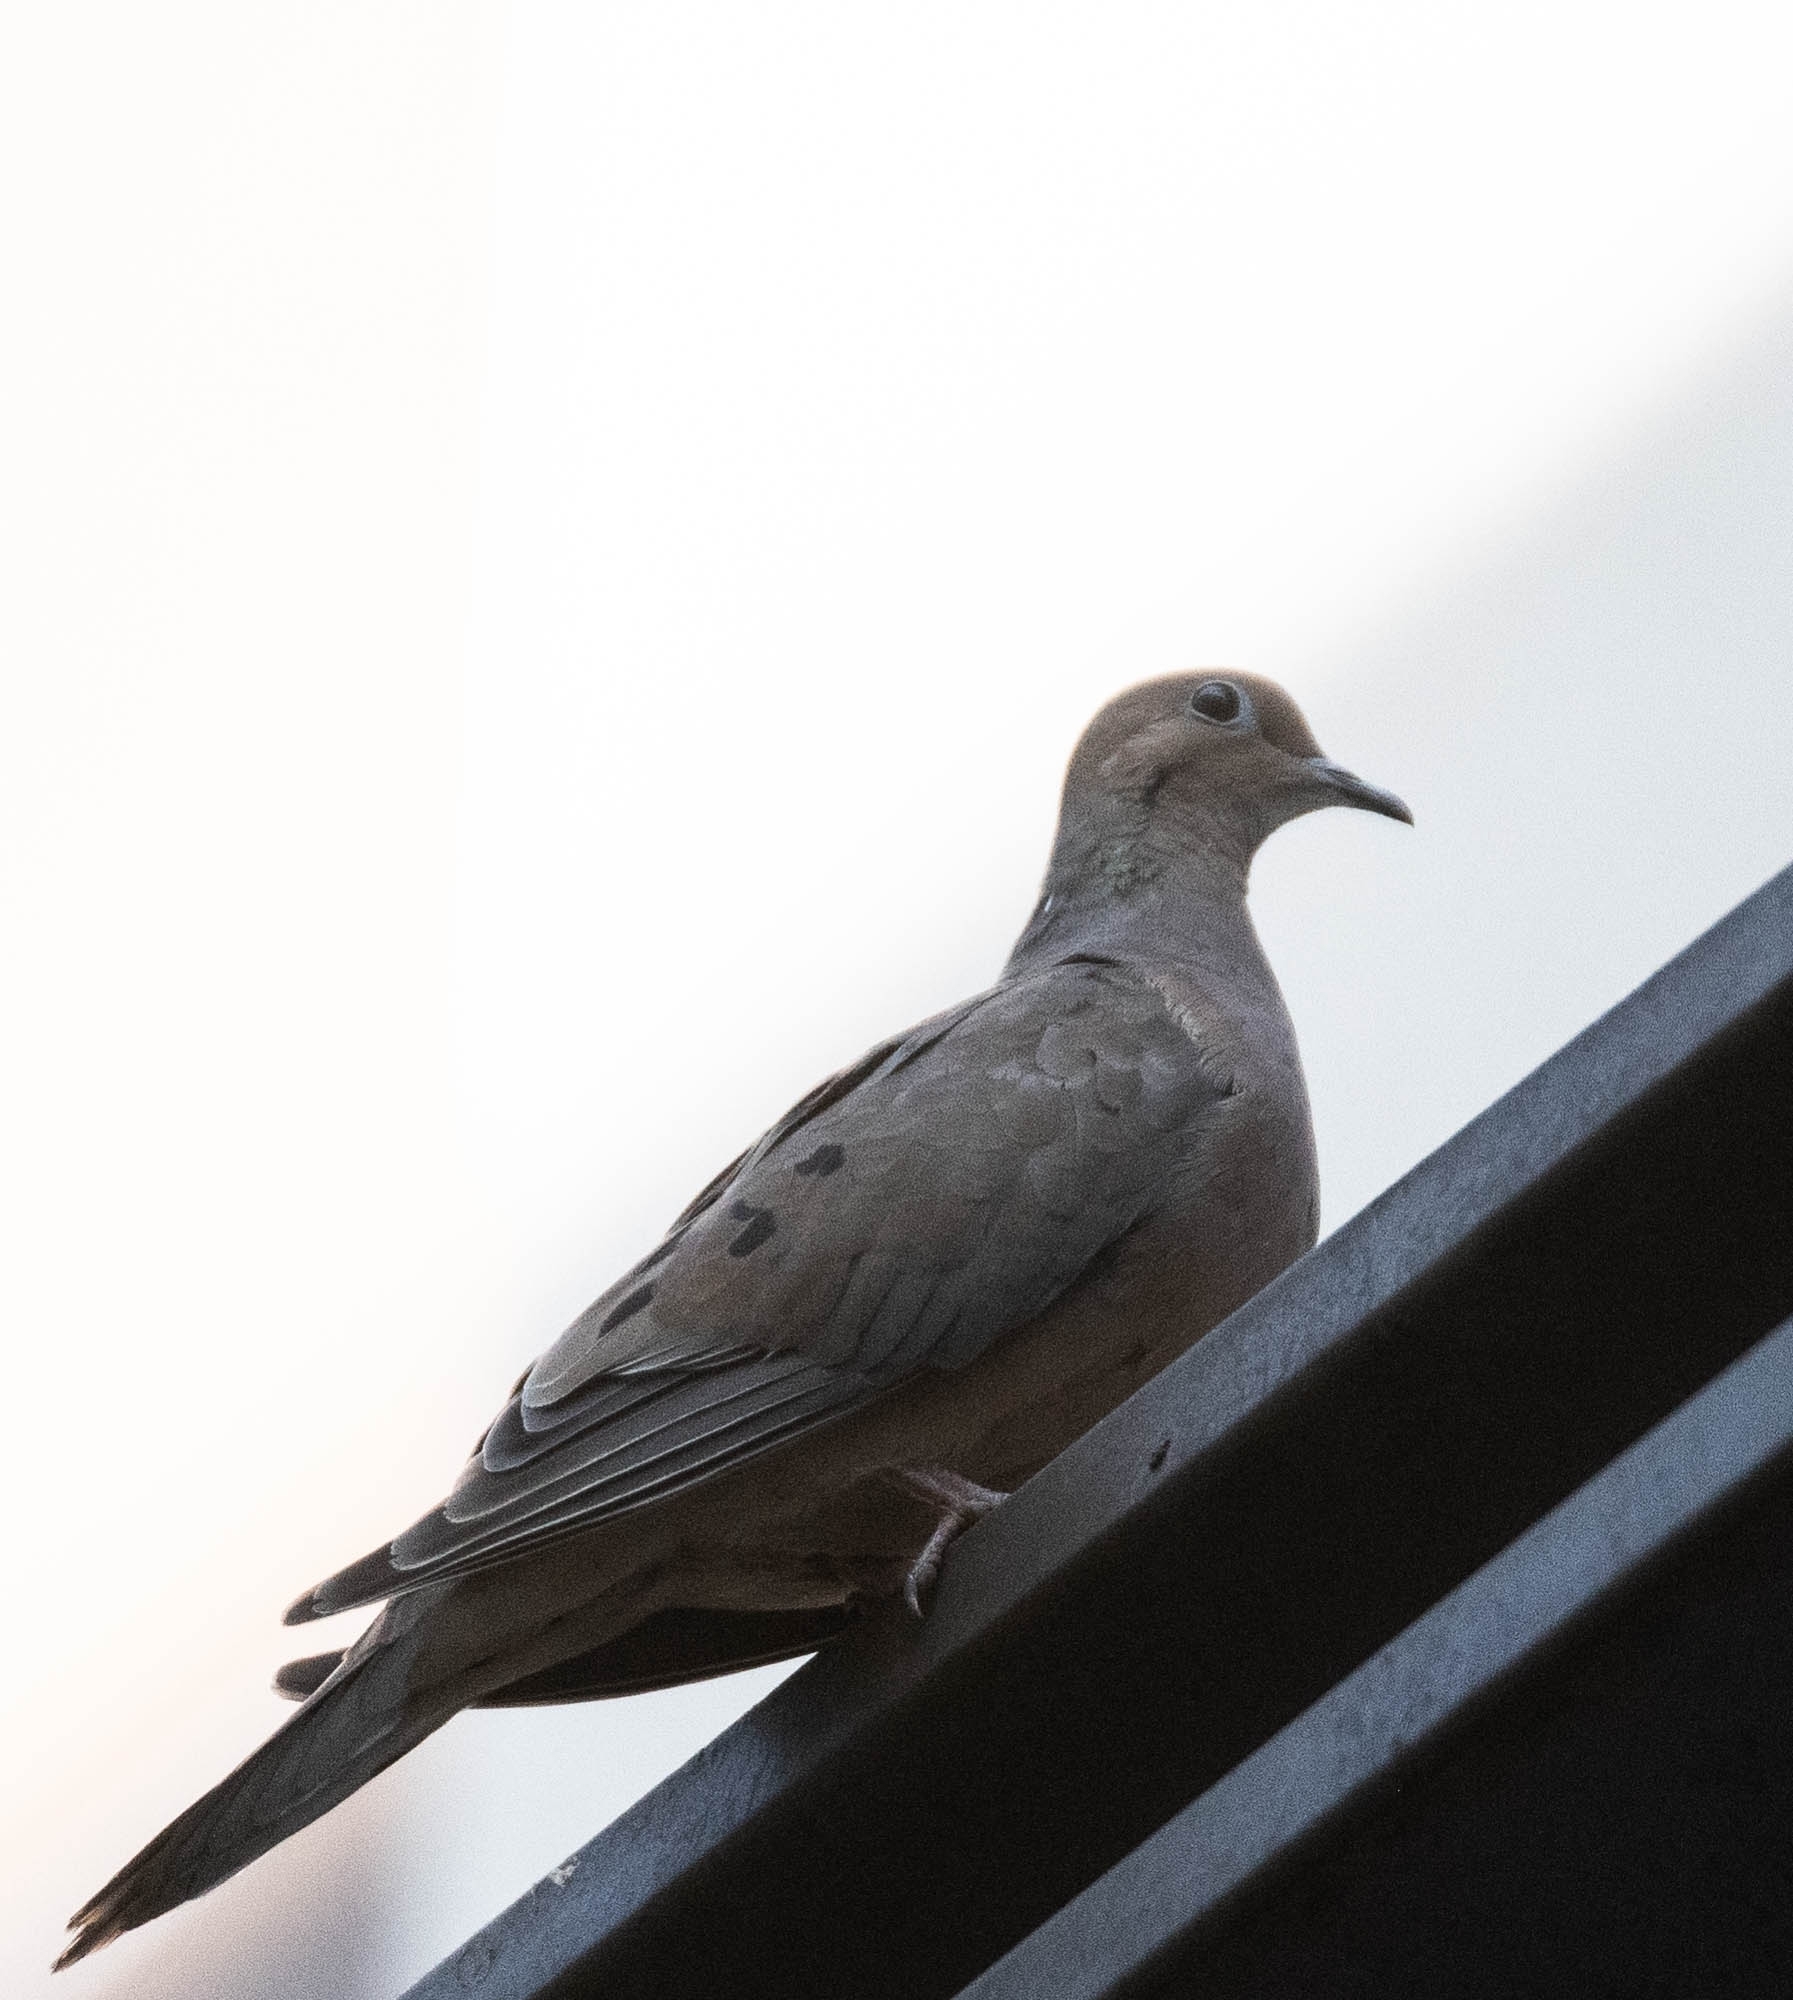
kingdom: Animalia
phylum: Chordata
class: Aves
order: Columbiformes
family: Columbidae
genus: Zenaida
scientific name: Zenaida macroura
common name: Mourning dove
